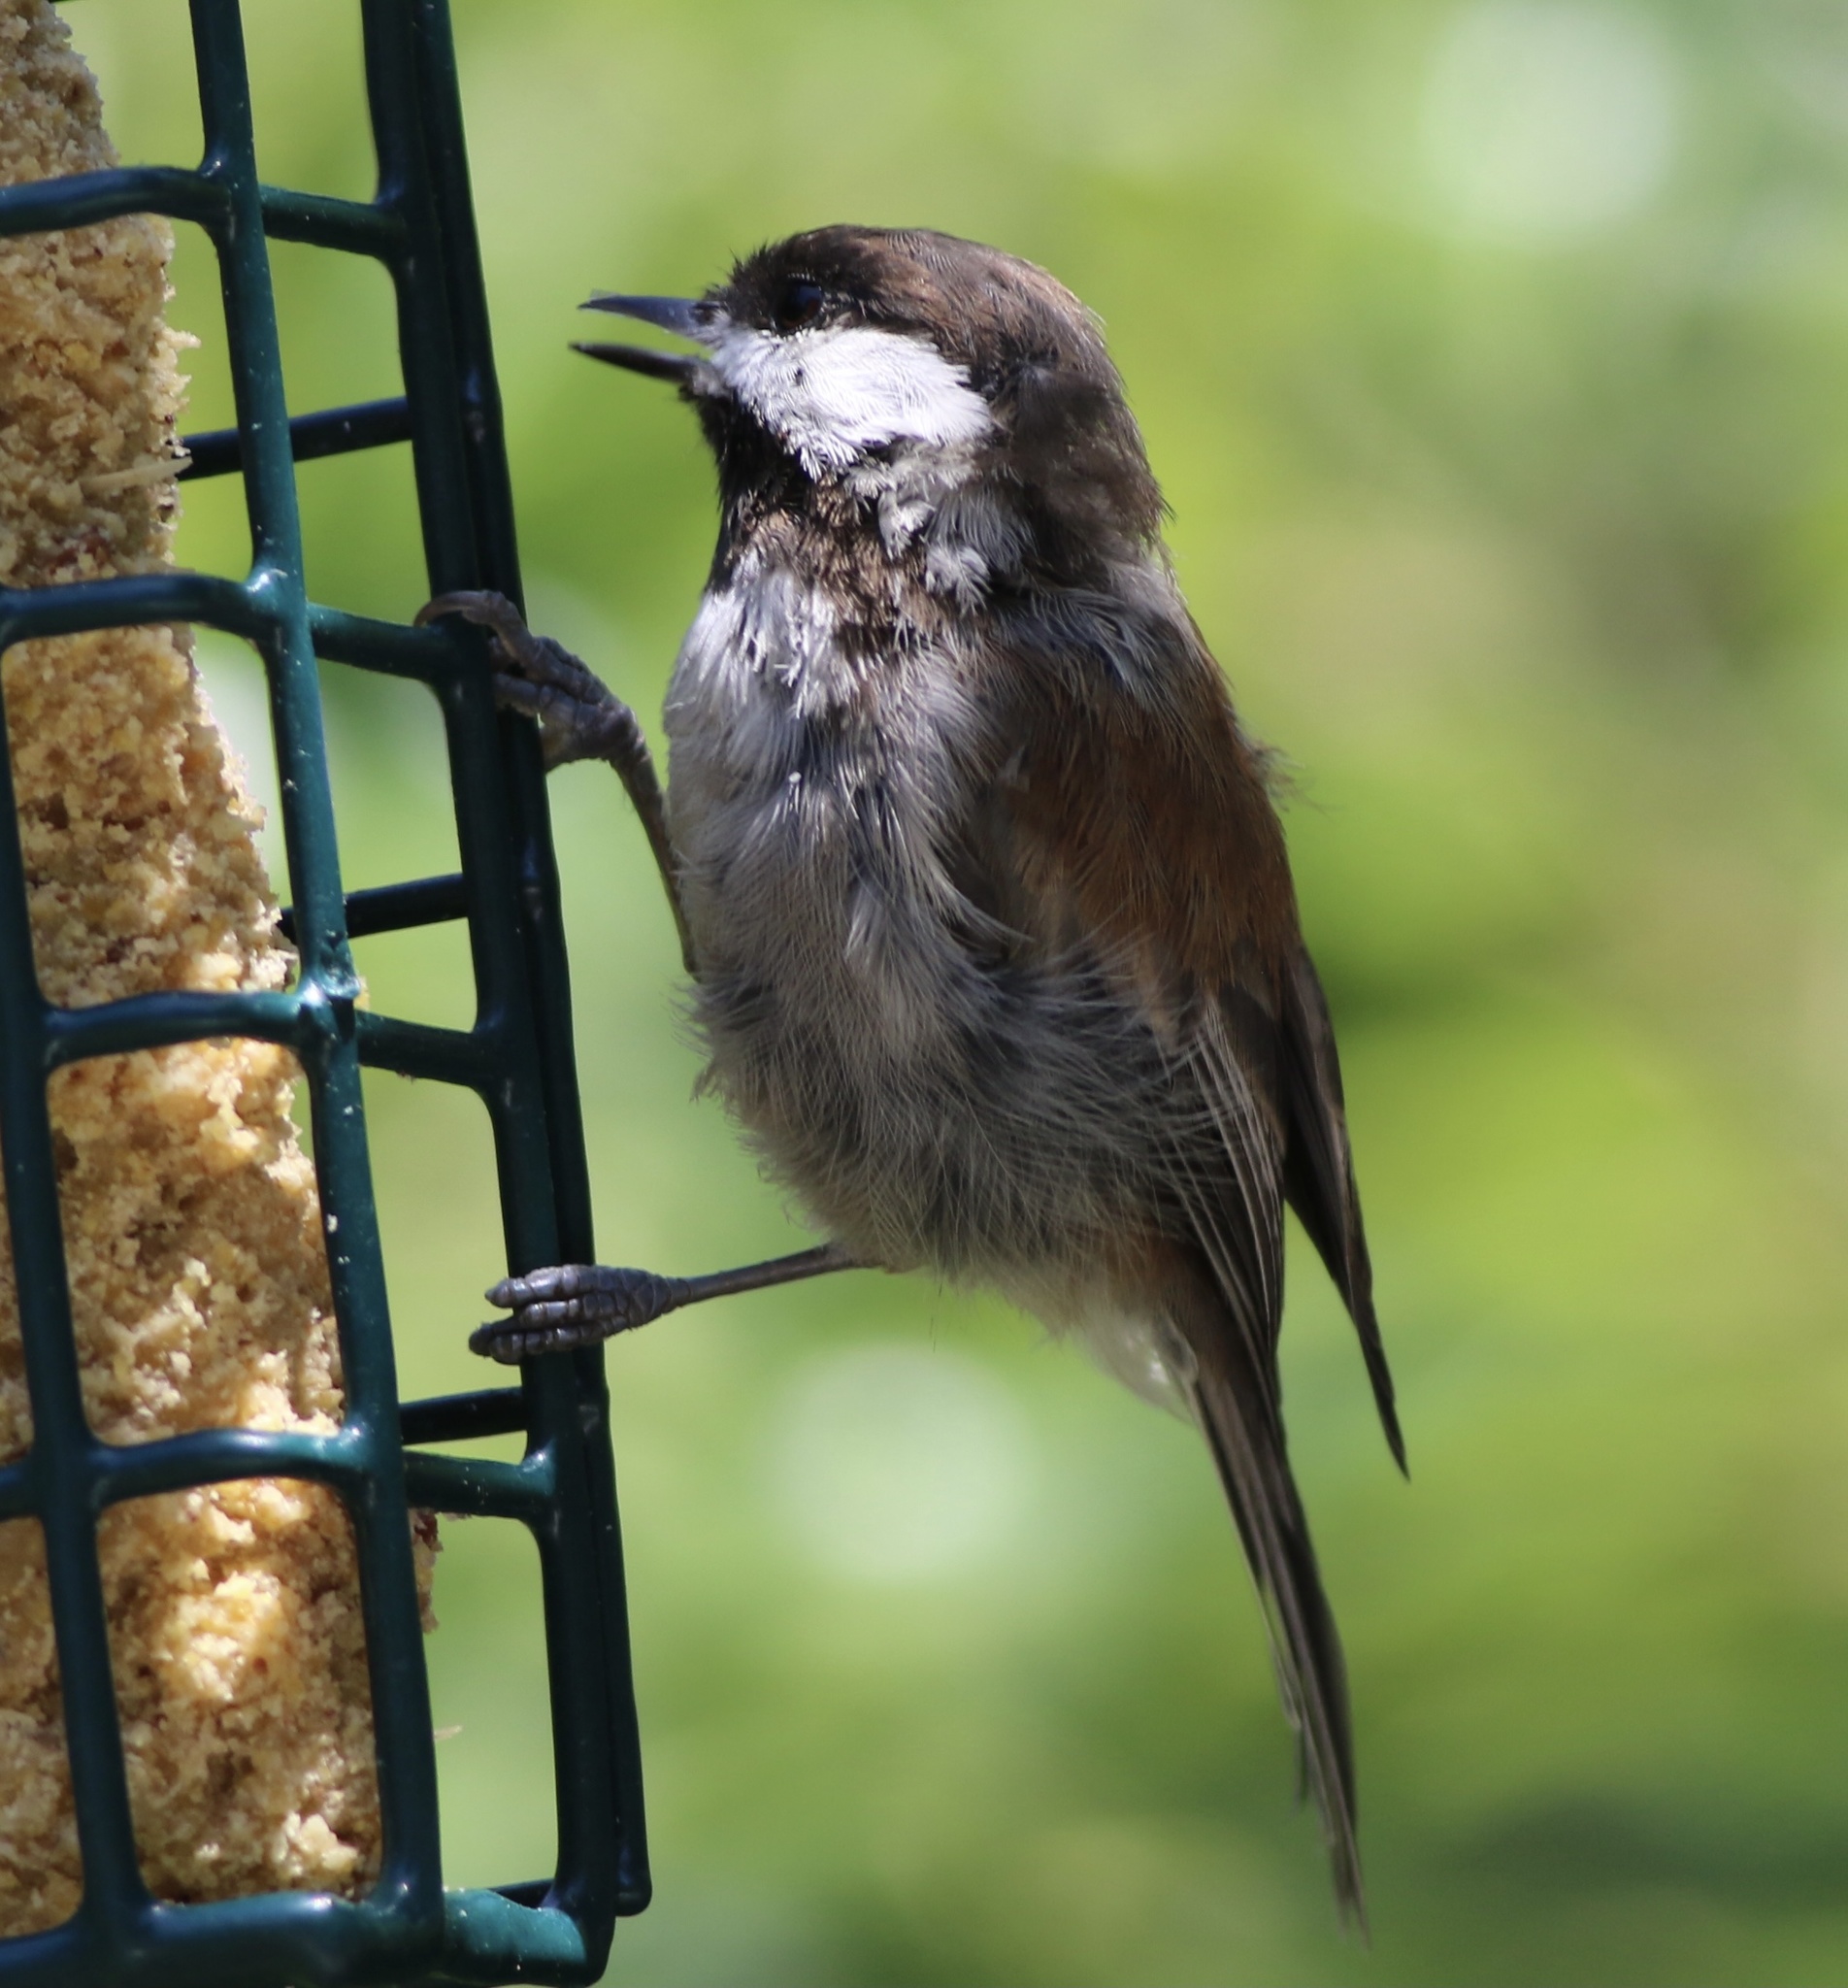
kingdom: Animalia
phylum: Chordata
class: Aves
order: Passeriformes
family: Paridae
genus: Poecile
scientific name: Poecile rufescens
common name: Chestnut-backed chickadee
